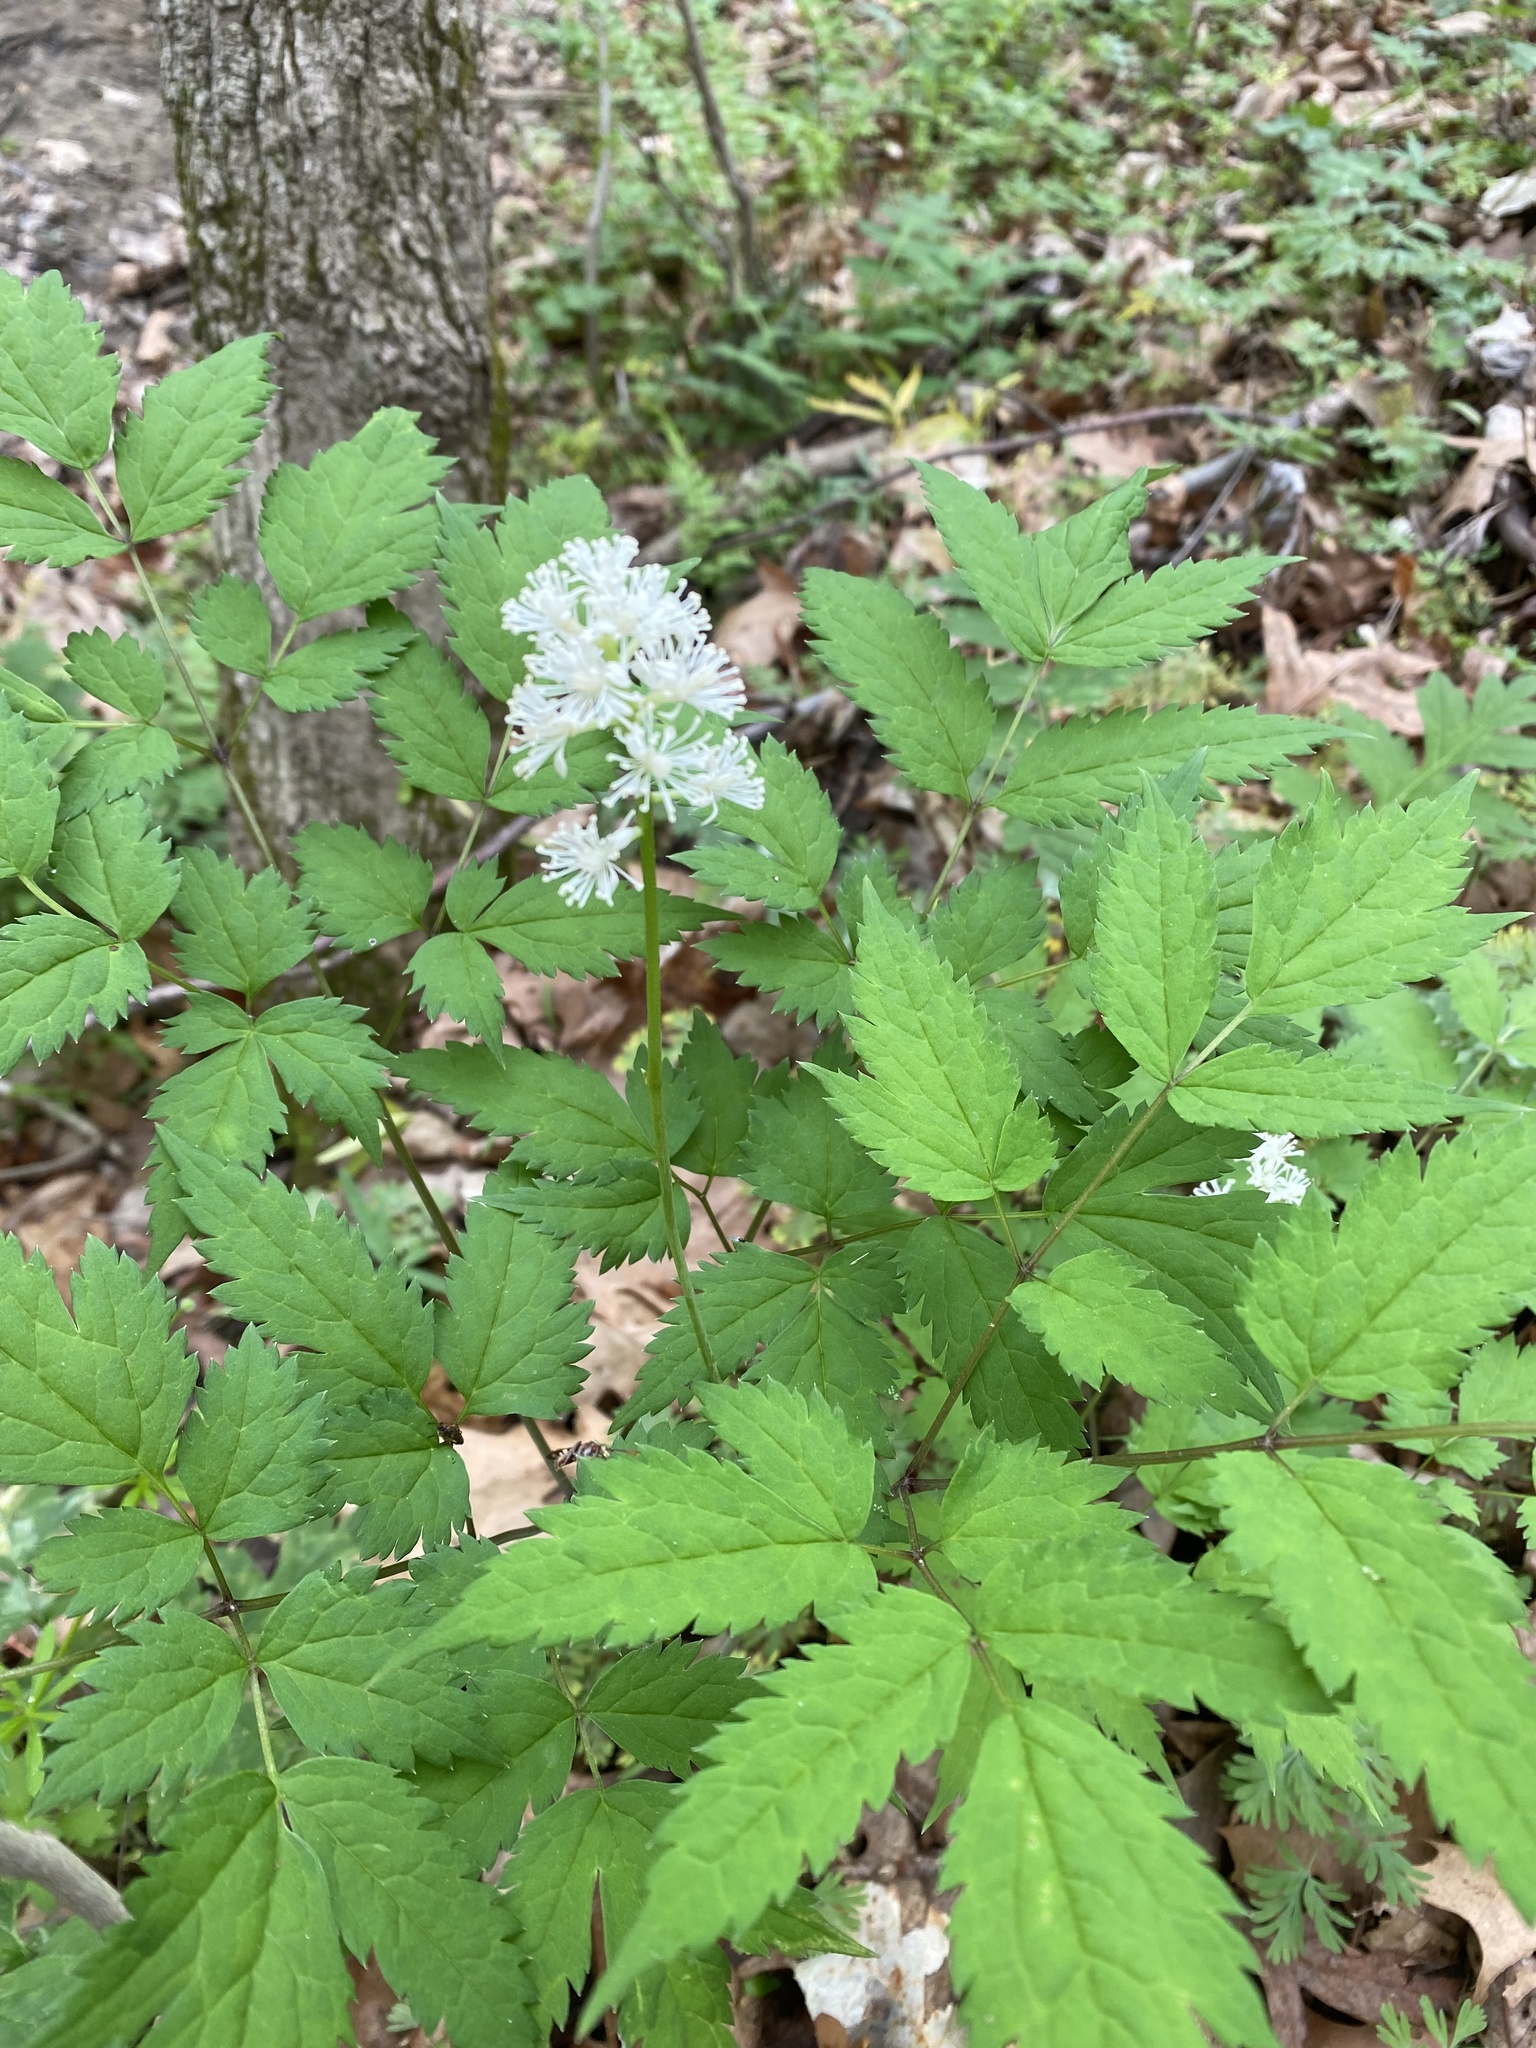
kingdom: Plantae
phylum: Tracheophyta
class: Magnoliopsida
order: Ranunculales
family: Ranunculaceae
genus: Actaea
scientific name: Actaea pachypoda
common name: Doll's-eyes
